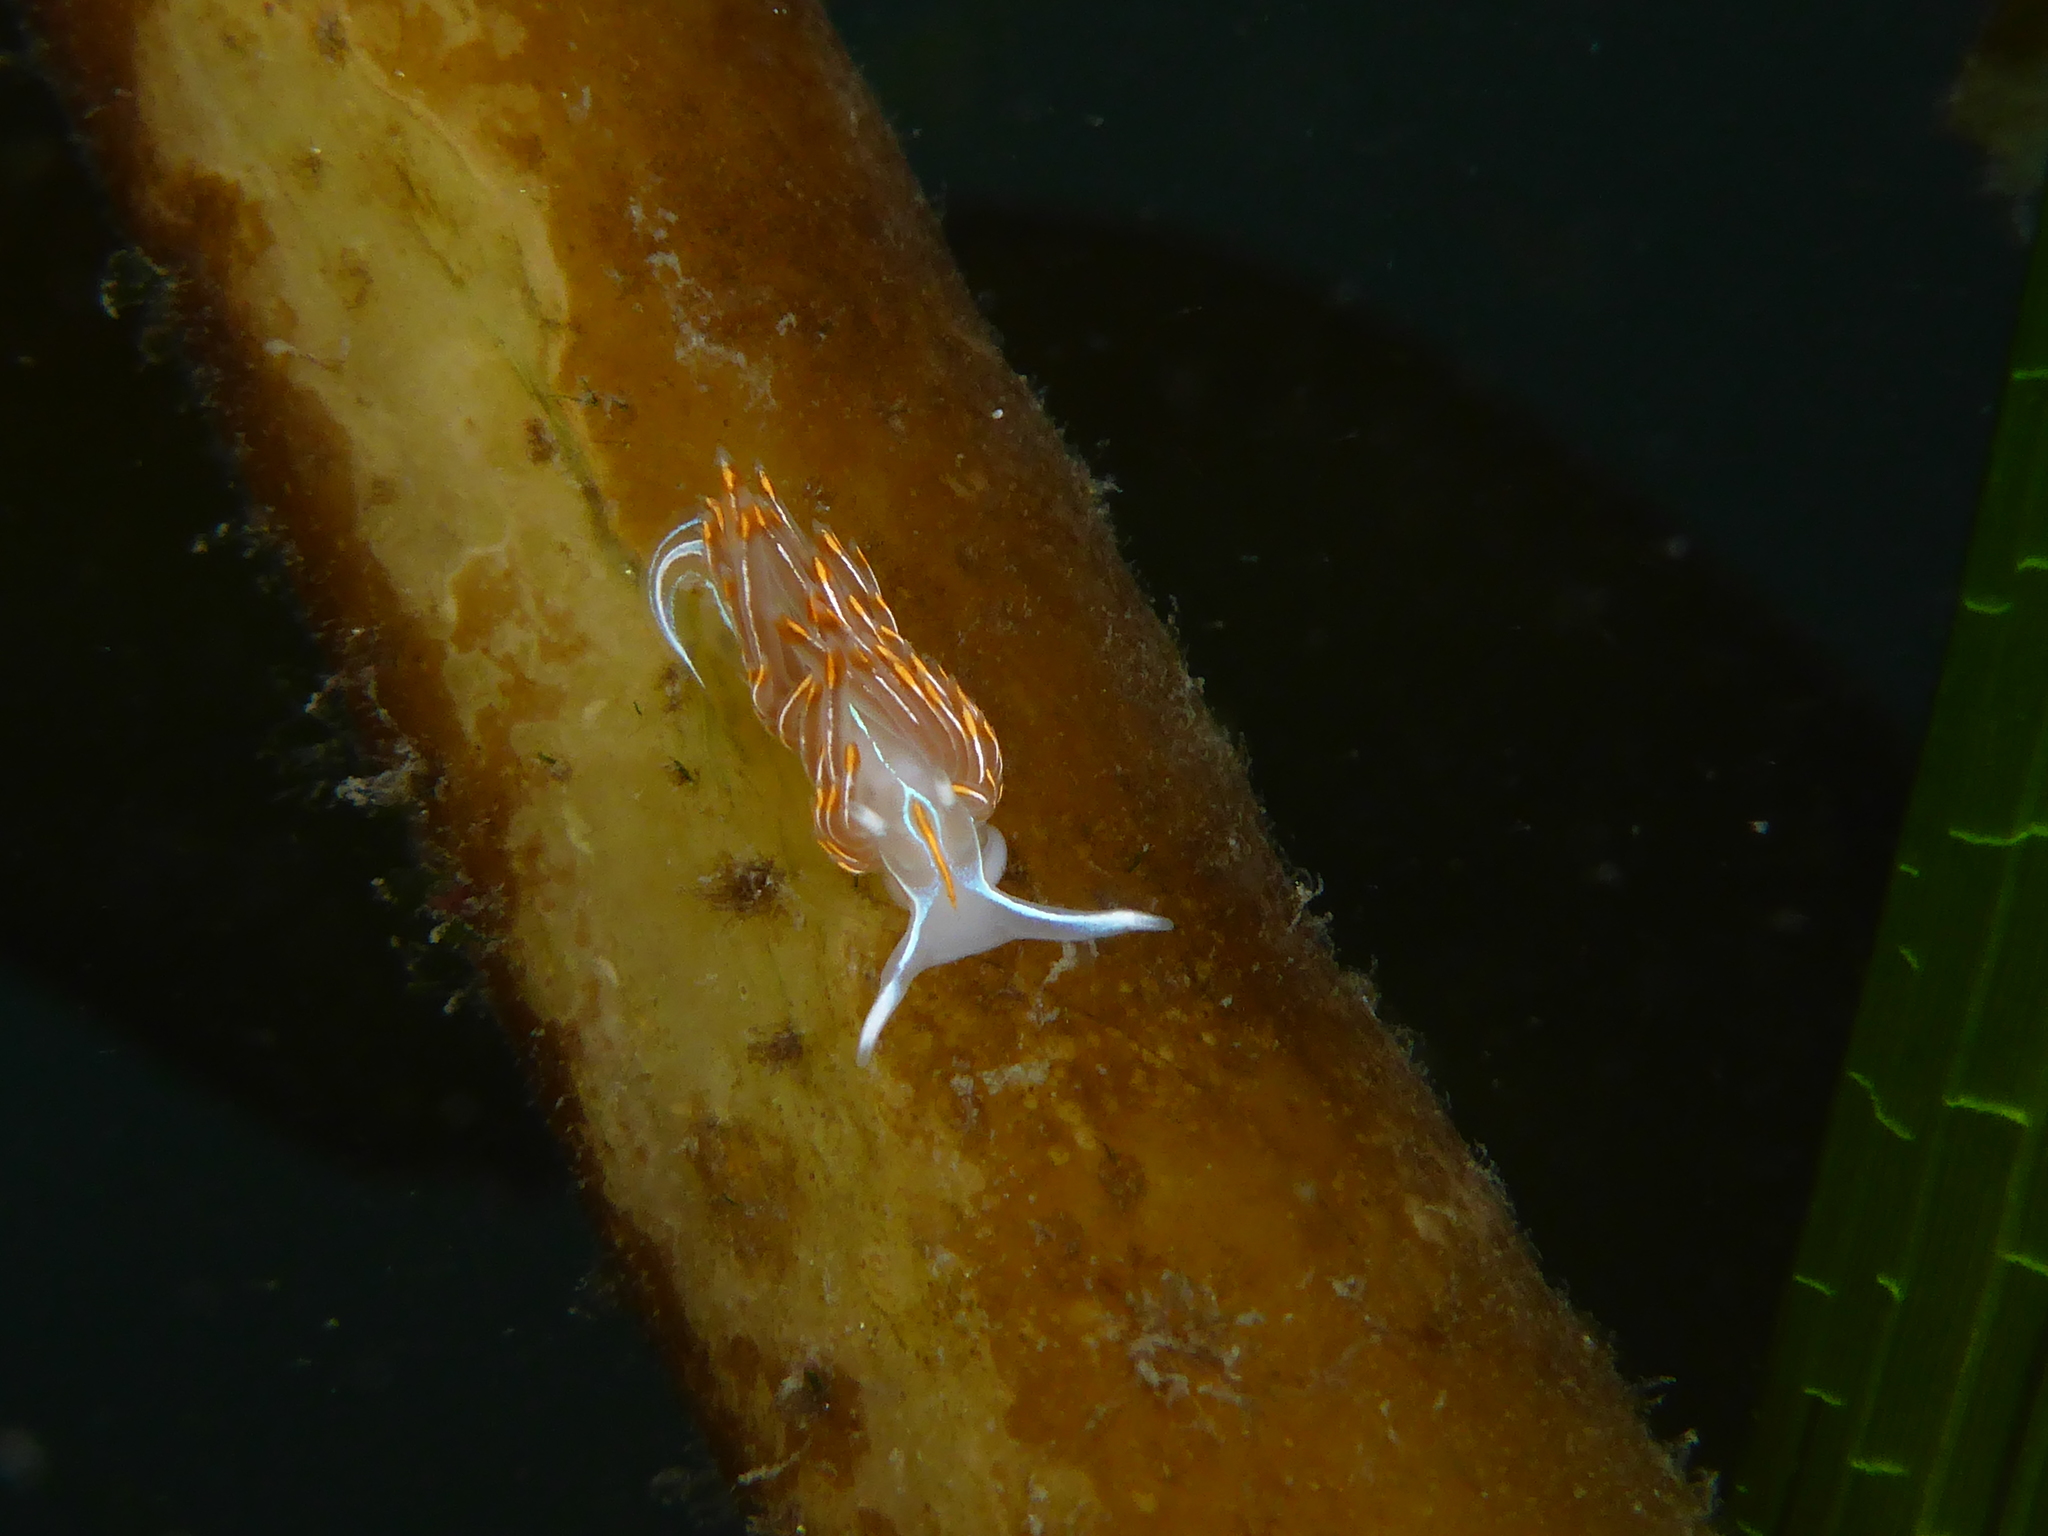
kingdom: Animalia
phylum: Mollusca
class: Gastropoda
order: Nudibranchia
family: Myrrhinidae
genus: Hermissenda
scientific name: Hermissenda crassicornis
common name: Hermissenda
